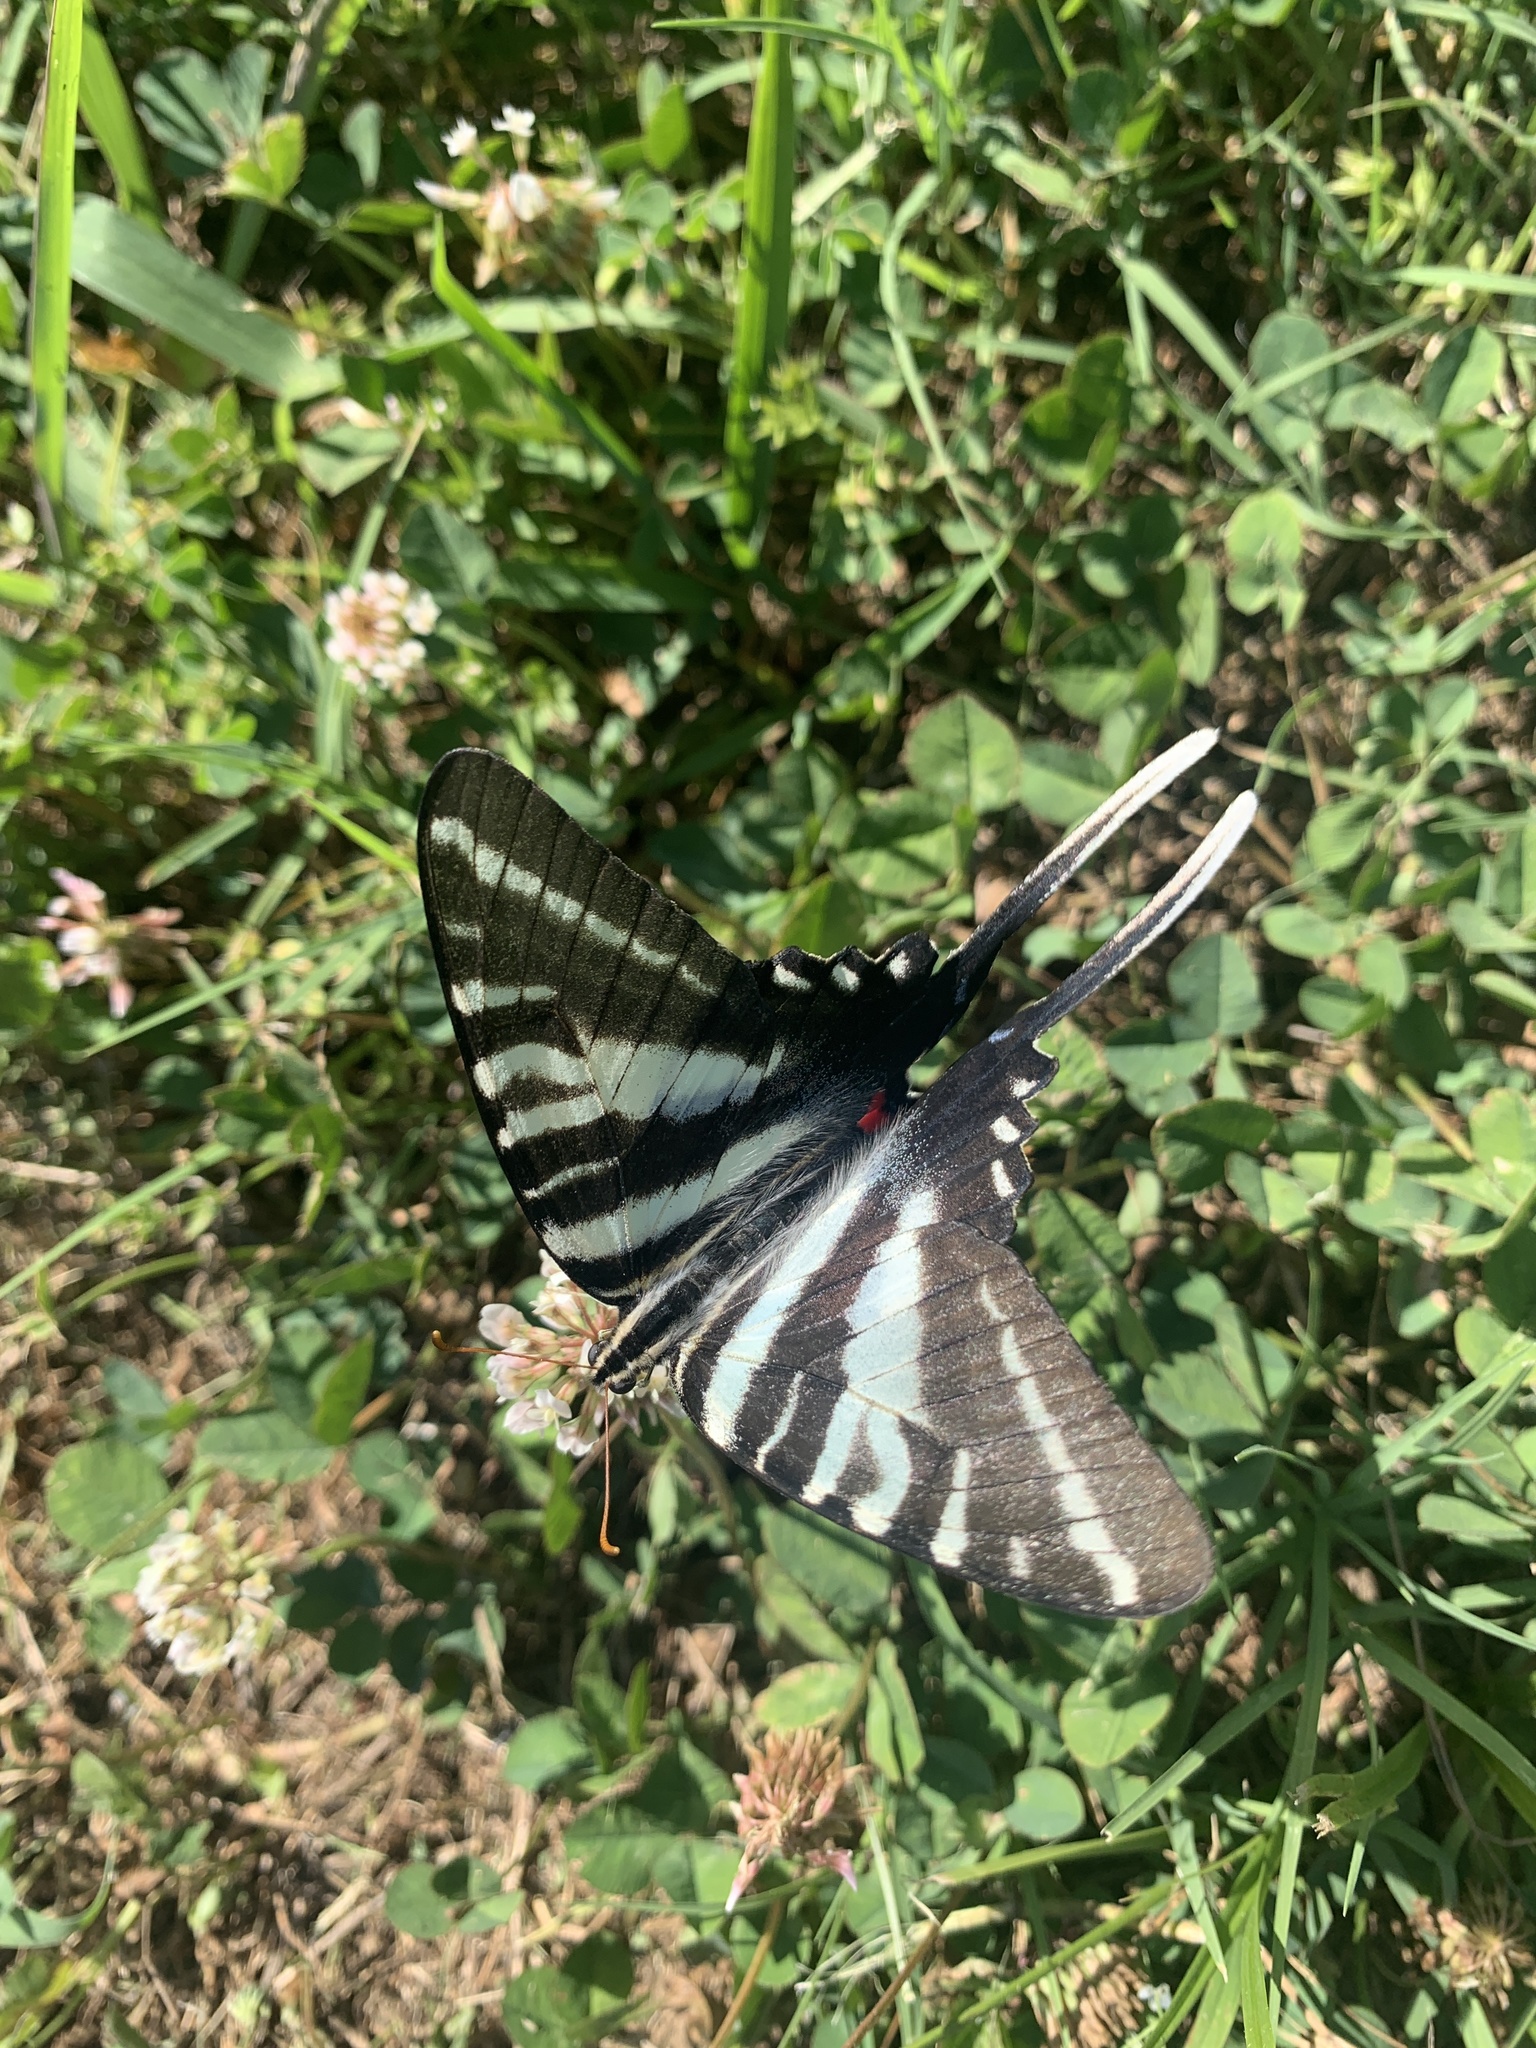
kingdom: Animalia
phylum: Arthropoda
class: Insecta
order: Lepidoptera
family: Papilionidae
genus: Protographium
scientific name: Protographium marcellus
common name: Zebra swallowtail
